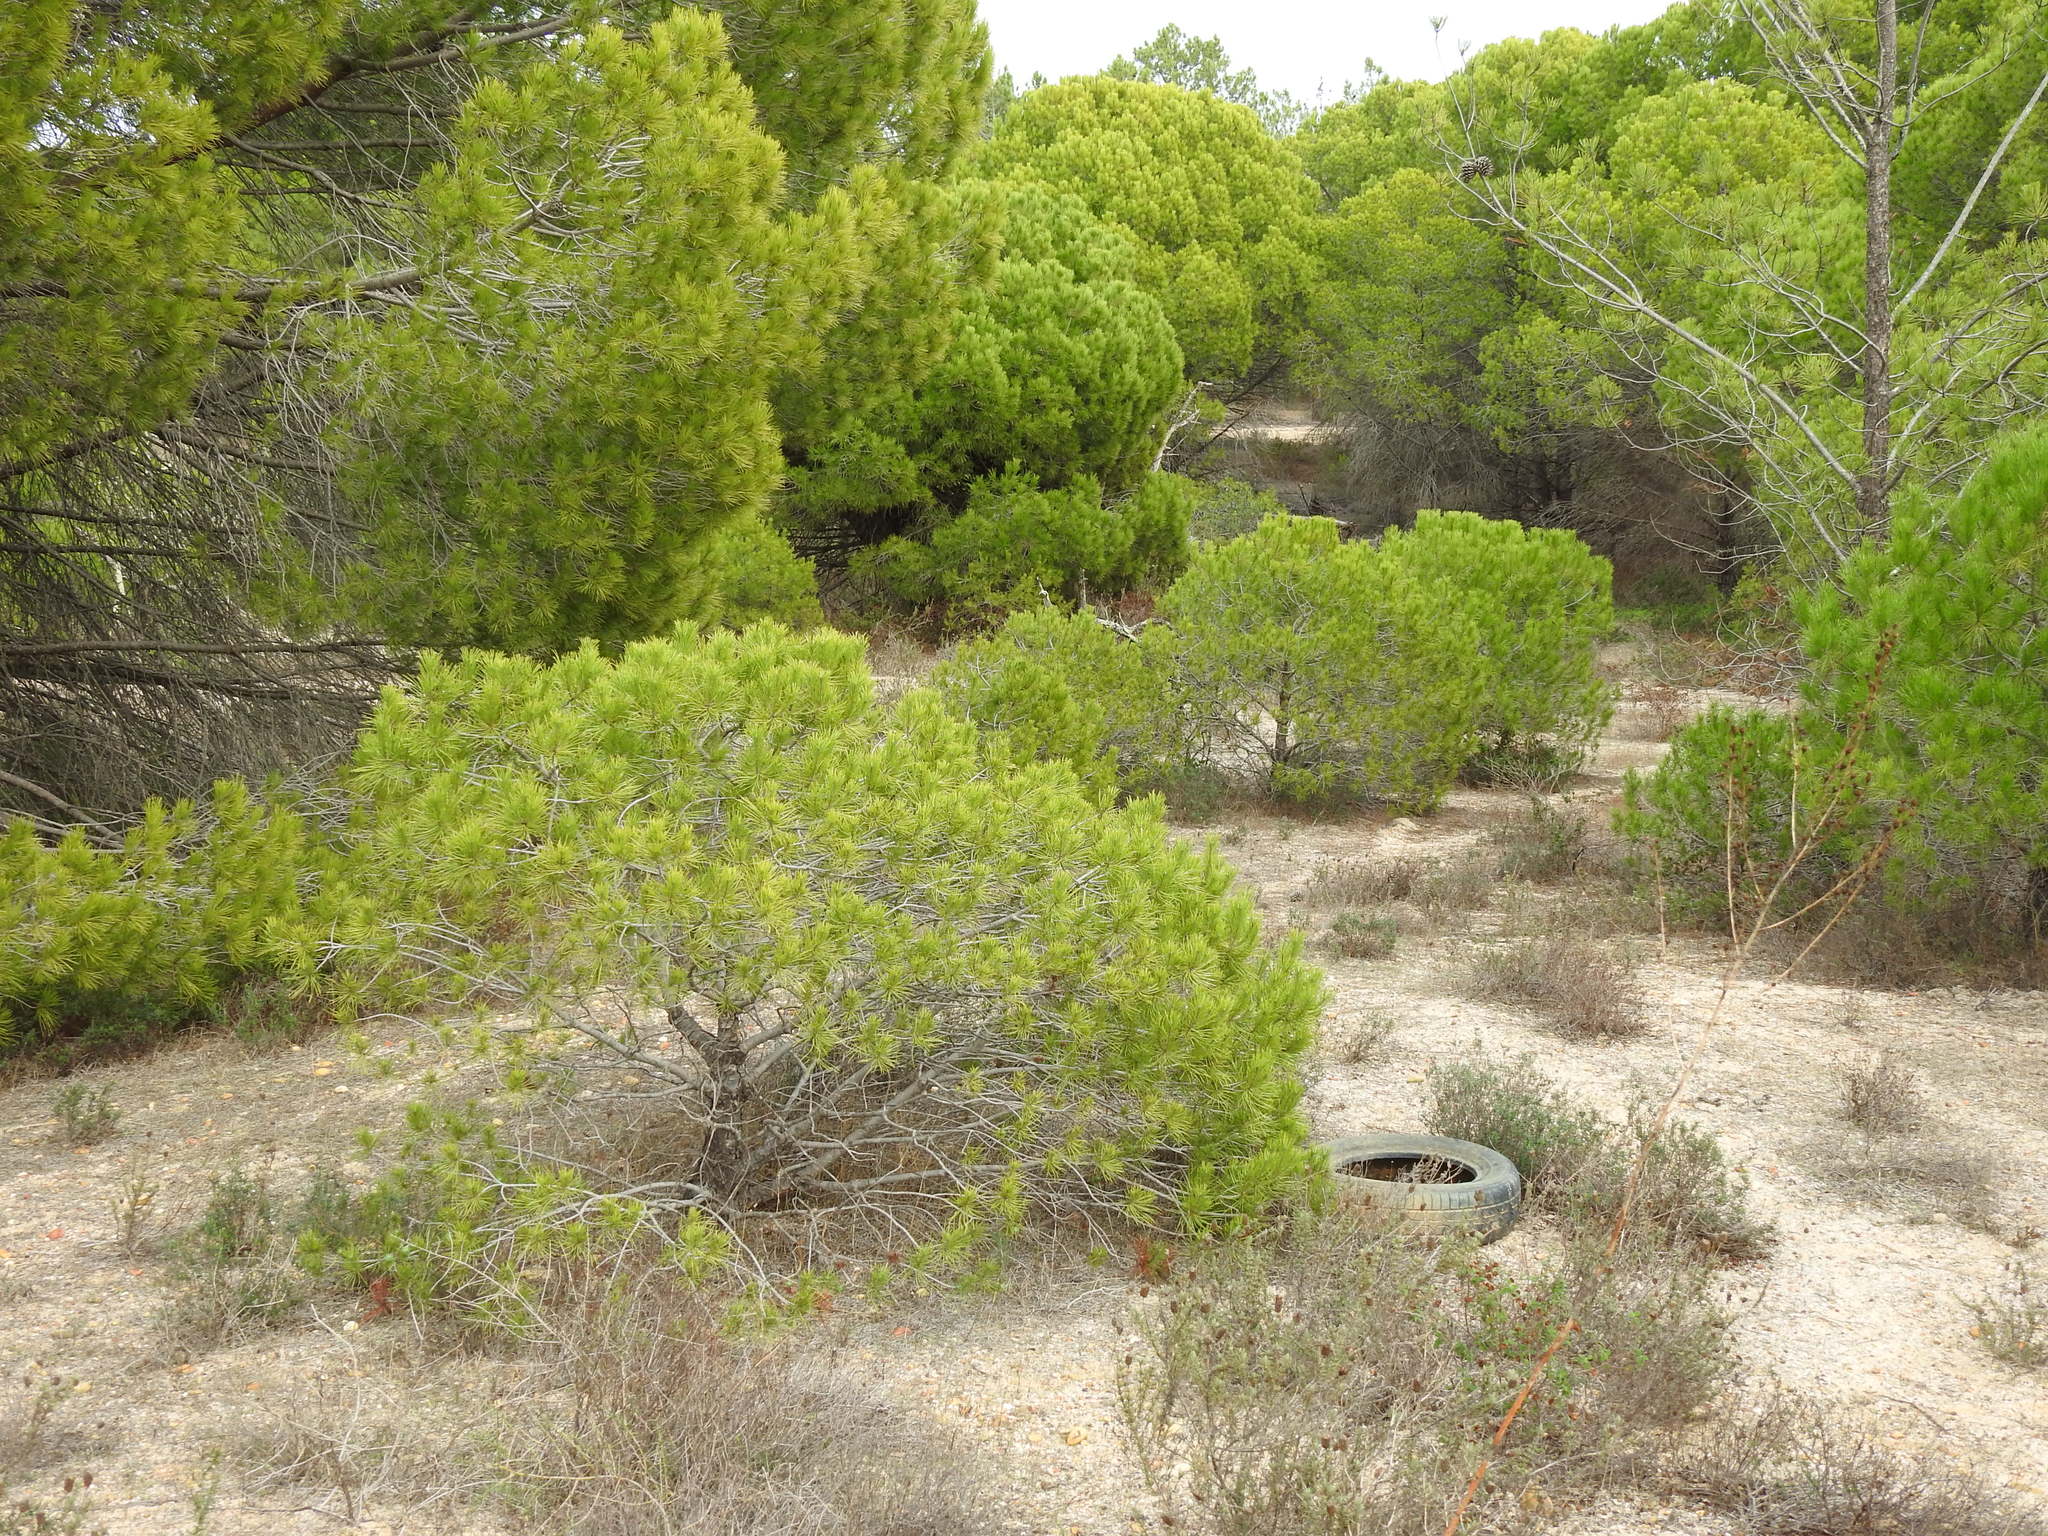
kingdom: Plantae
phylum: Tracheophyta
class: Pinopsida
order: Pinales
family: Pinaceae
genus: Pinus
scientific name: Pinus pinea
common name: Italian stone pine
